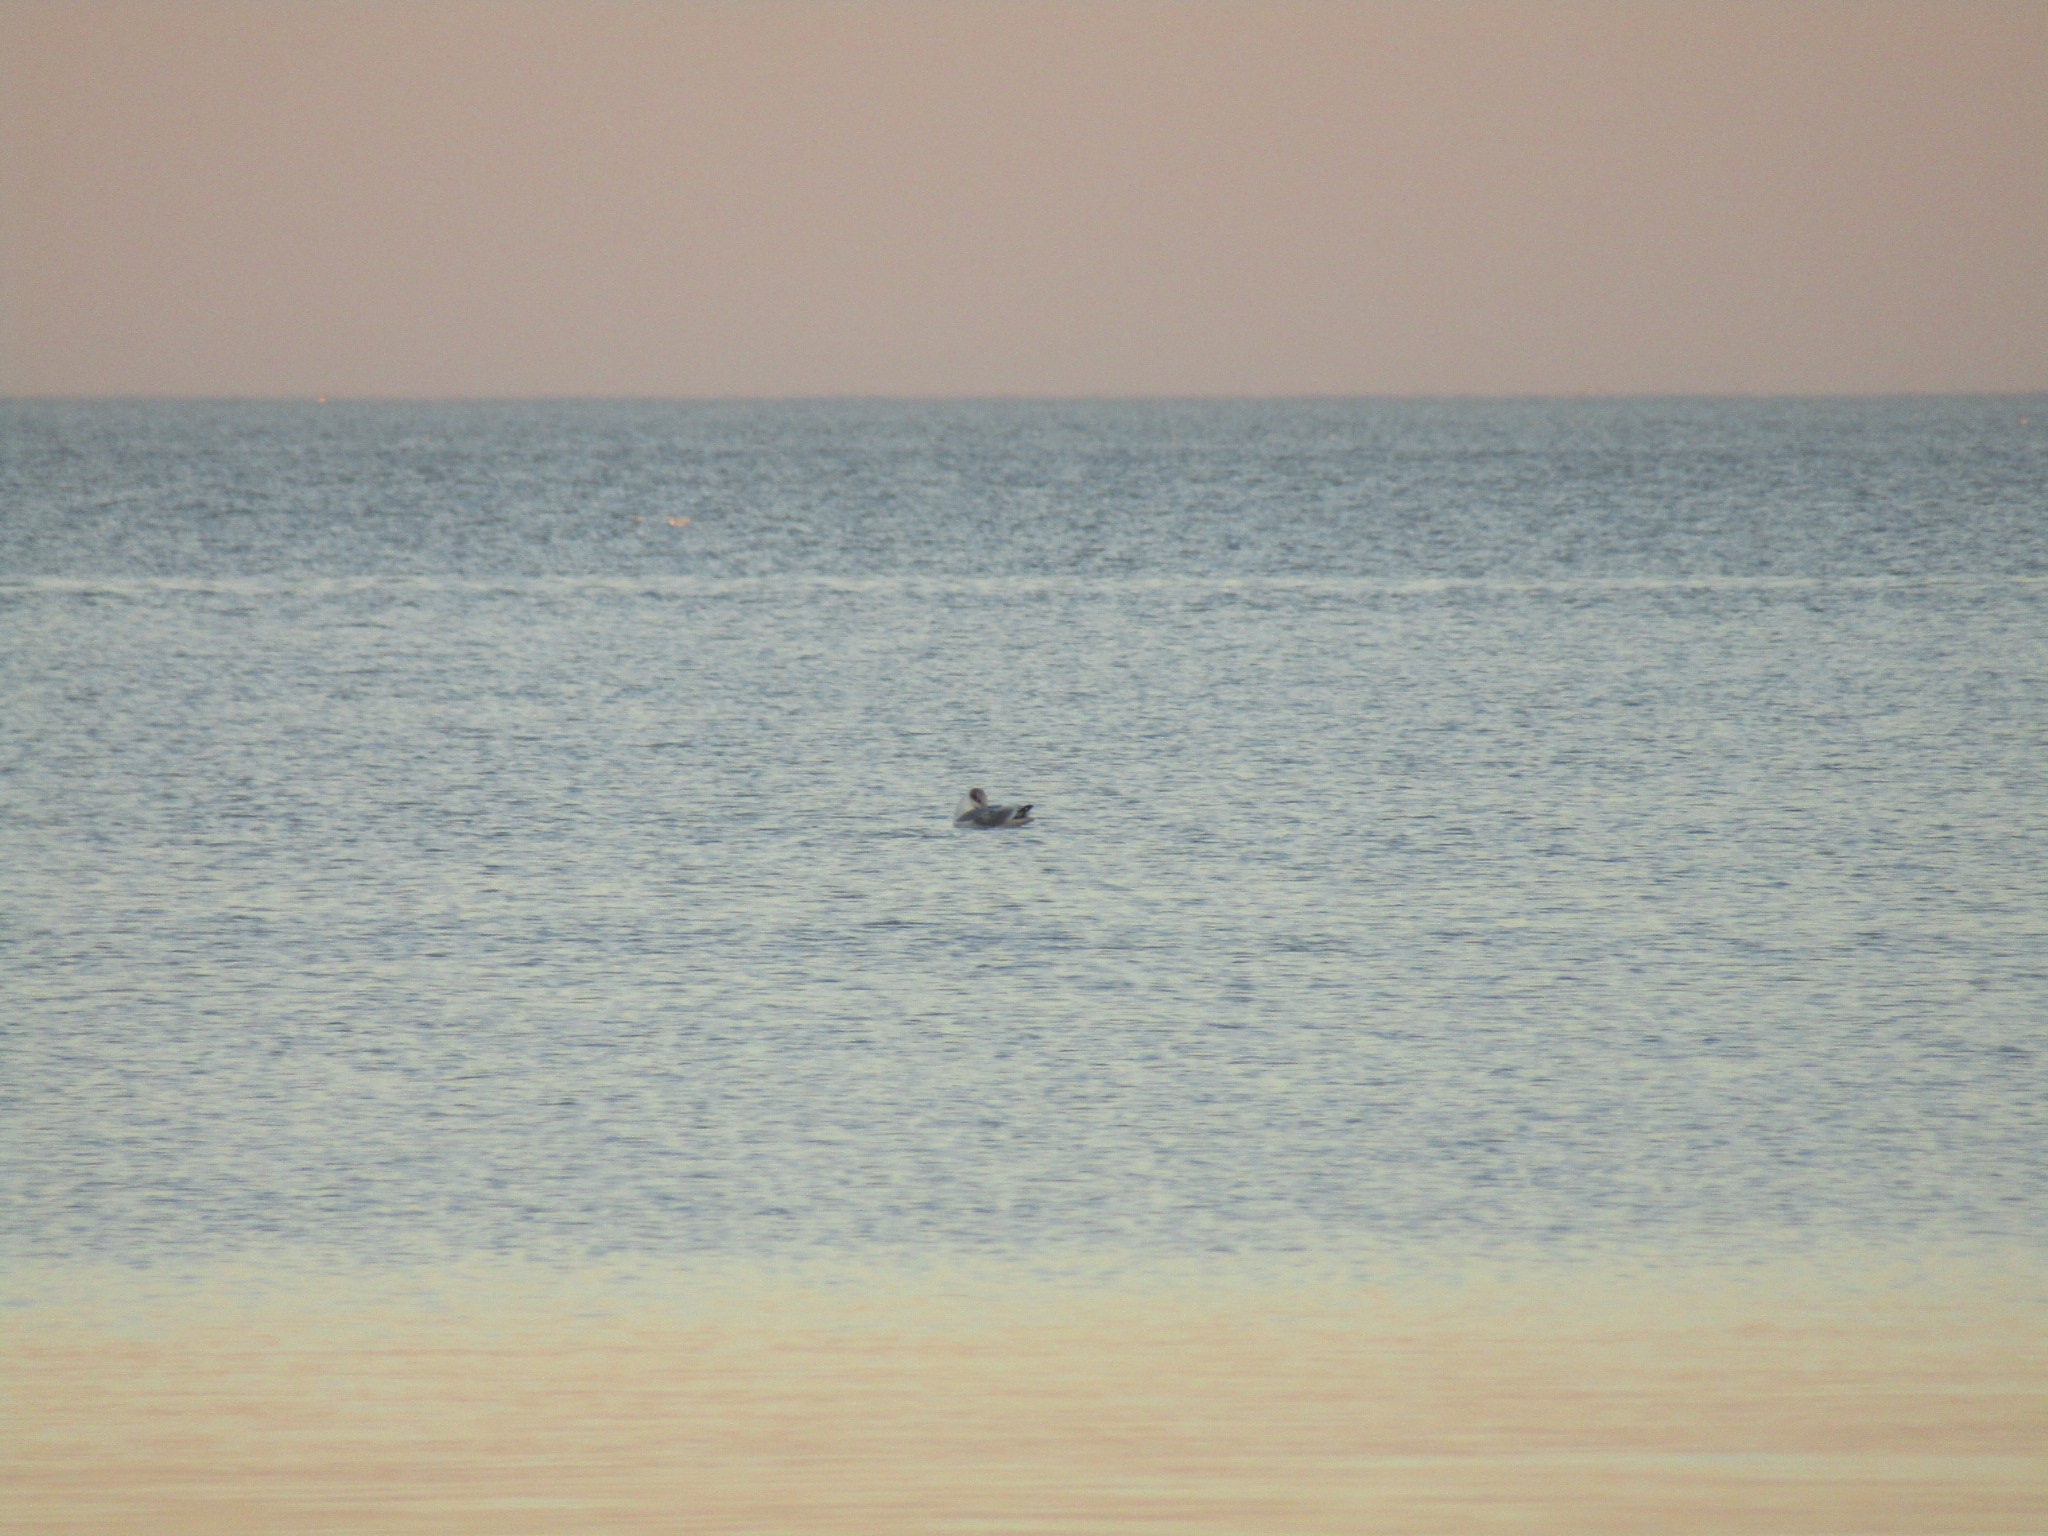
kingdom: Animalia
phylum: Chordata
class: Aves
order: Charadriiformes
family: Laridae
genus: Ichthyaetus
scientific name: Ichthyaetus ichthyaetus
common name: Pallas's gull
